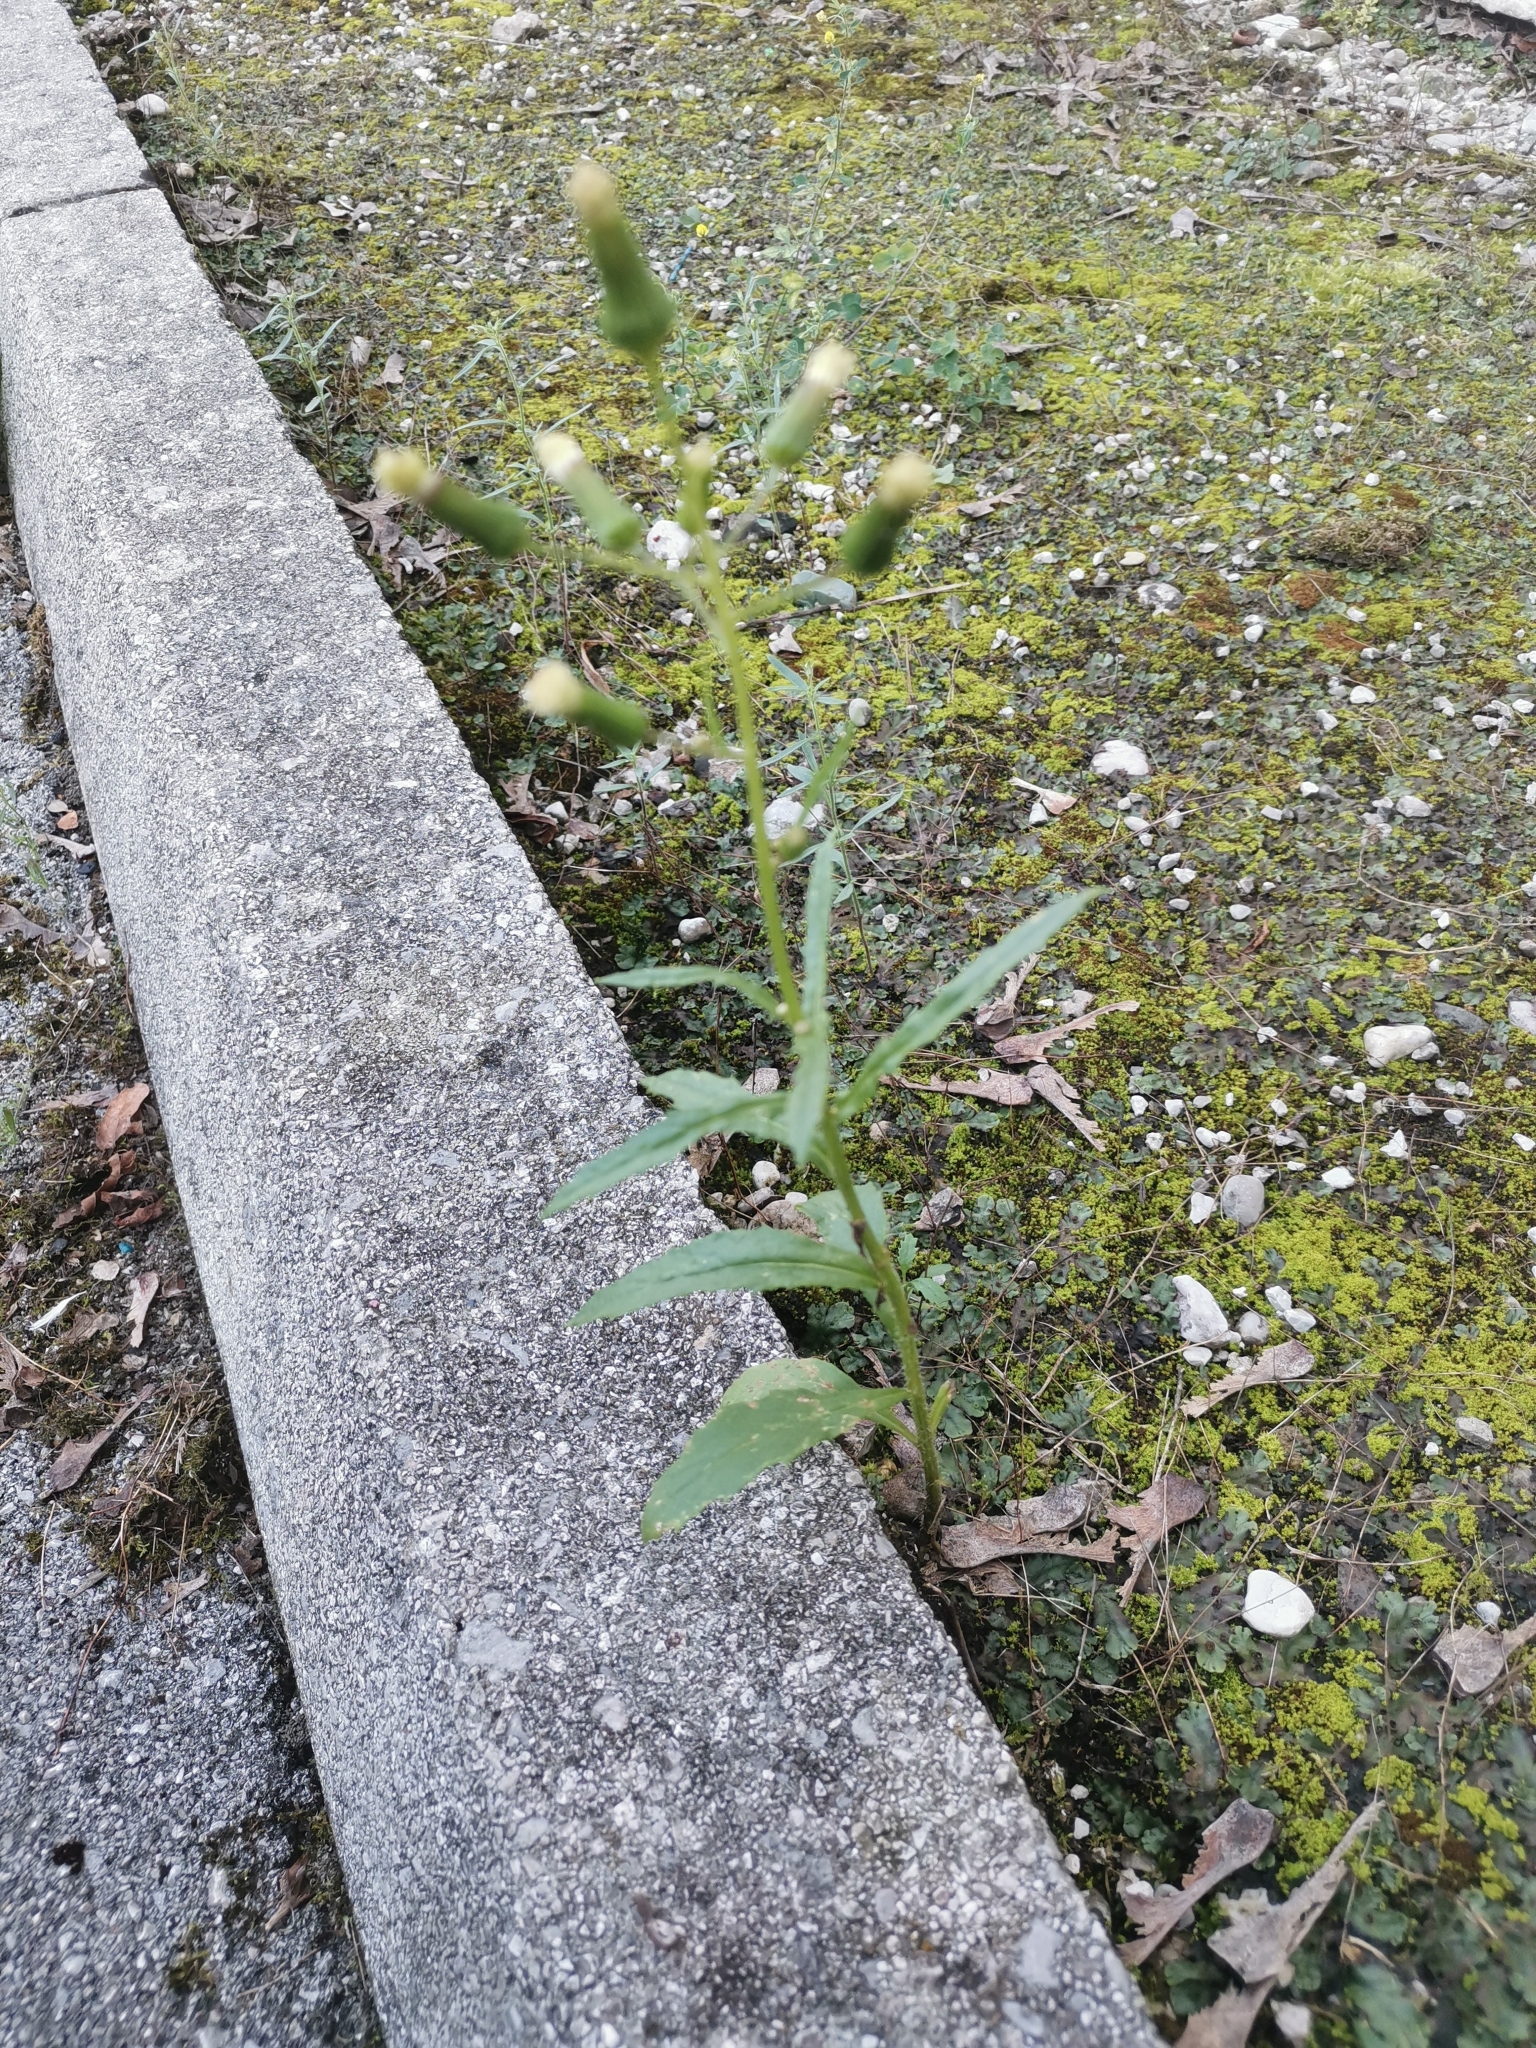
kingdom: Plantae
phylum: Tracheophyta
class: Magnoliopsida
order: Asterales
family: Asteraceae
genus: Erechtites
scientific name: Erechtites hieraciifolius
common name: American burnweed
